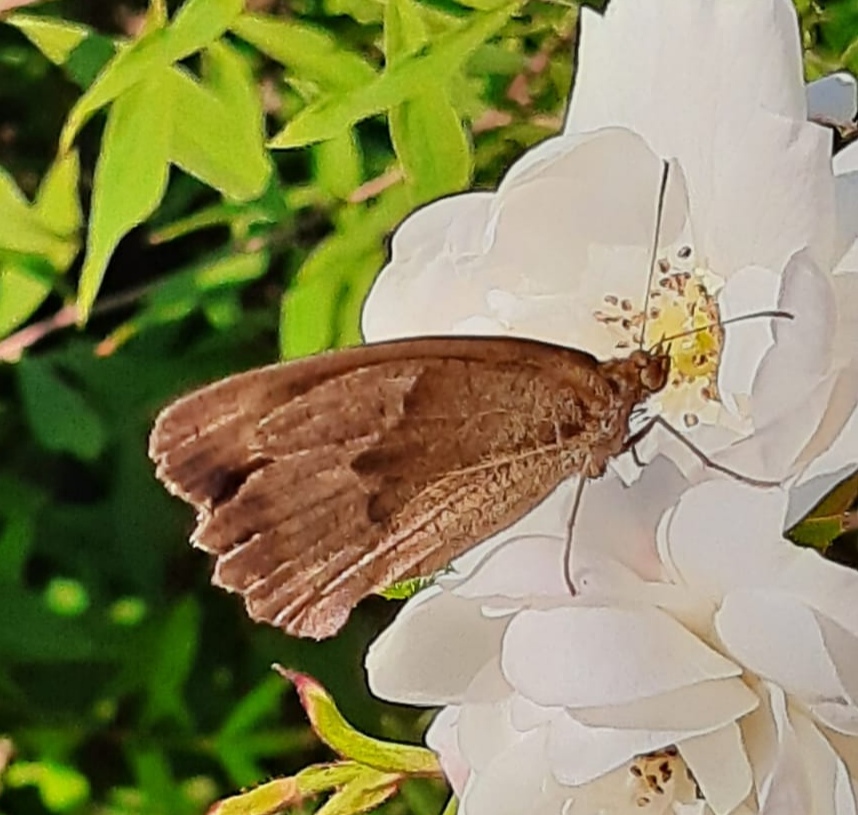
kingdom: Animalia
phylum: Arthropoda
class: Insecta
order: Lepidoptera
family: Nymphalidae
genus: Maniola
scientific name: Maniola jurtina
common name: Meadow brown
